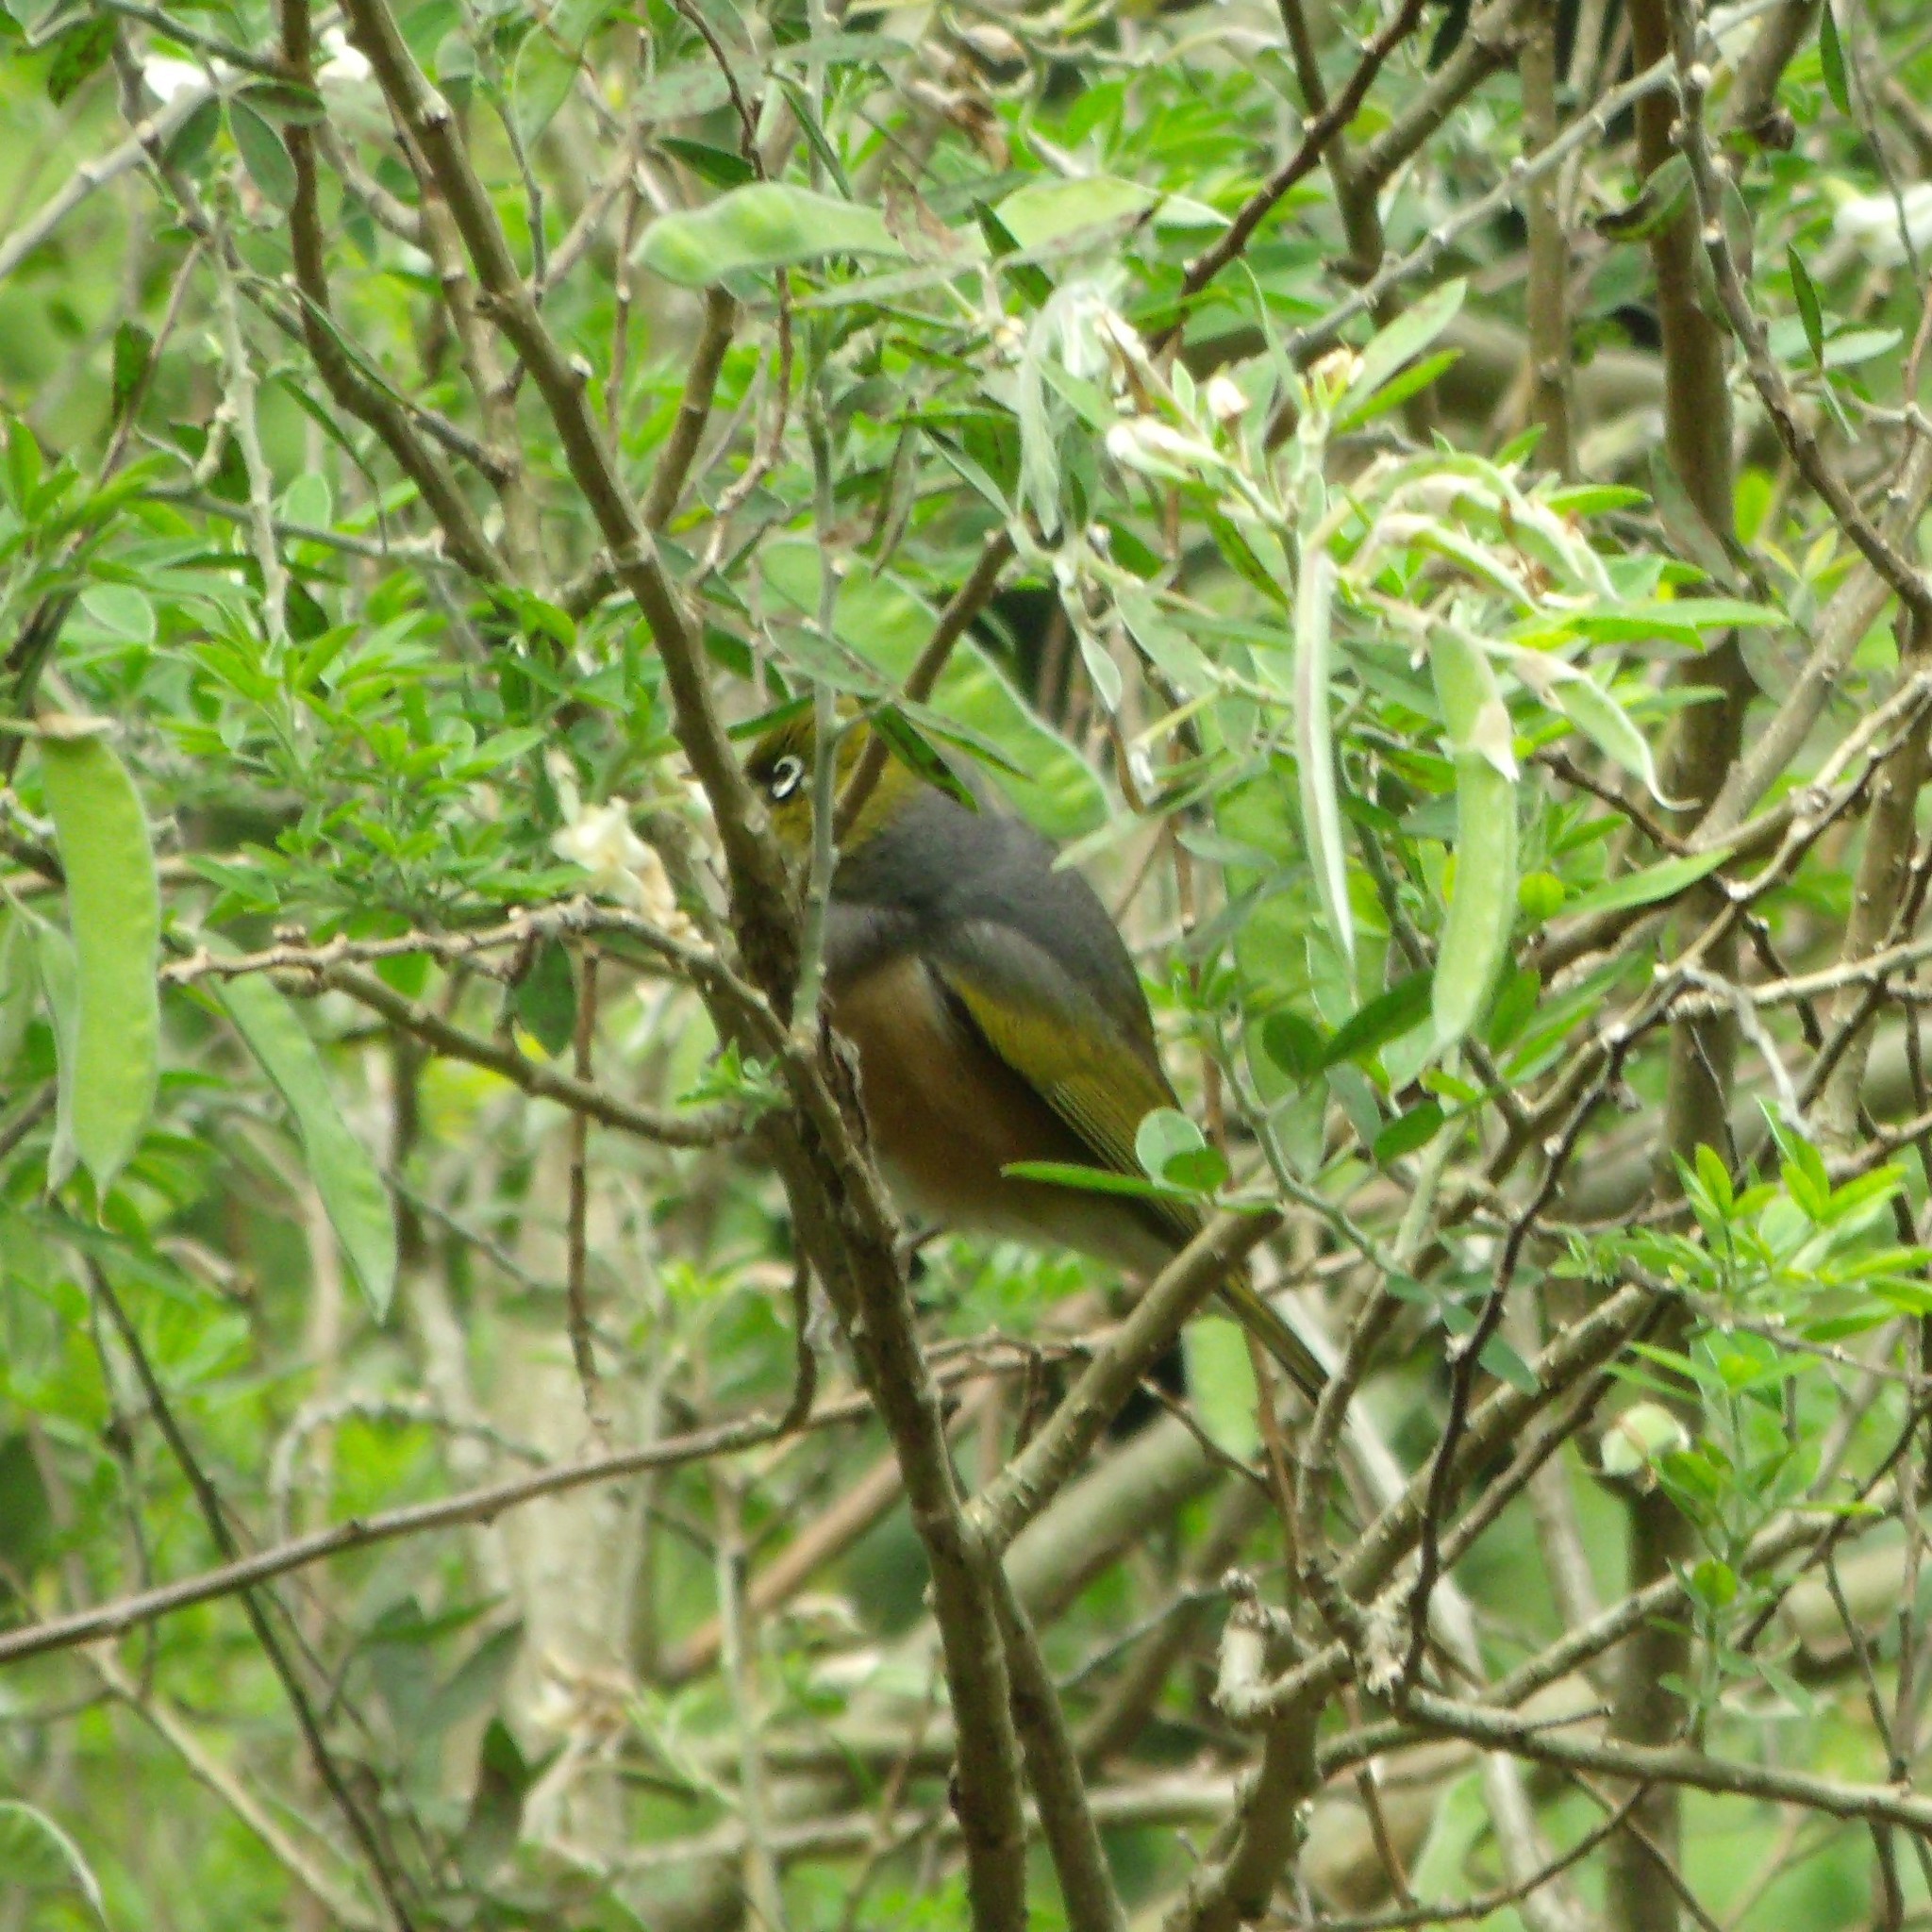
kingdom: Animalia
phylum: Chordata
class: Aves
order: Passeriformes
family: Zosteropidae
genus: Zosterops
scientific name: Zosterops lateralis
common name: Silvereye
